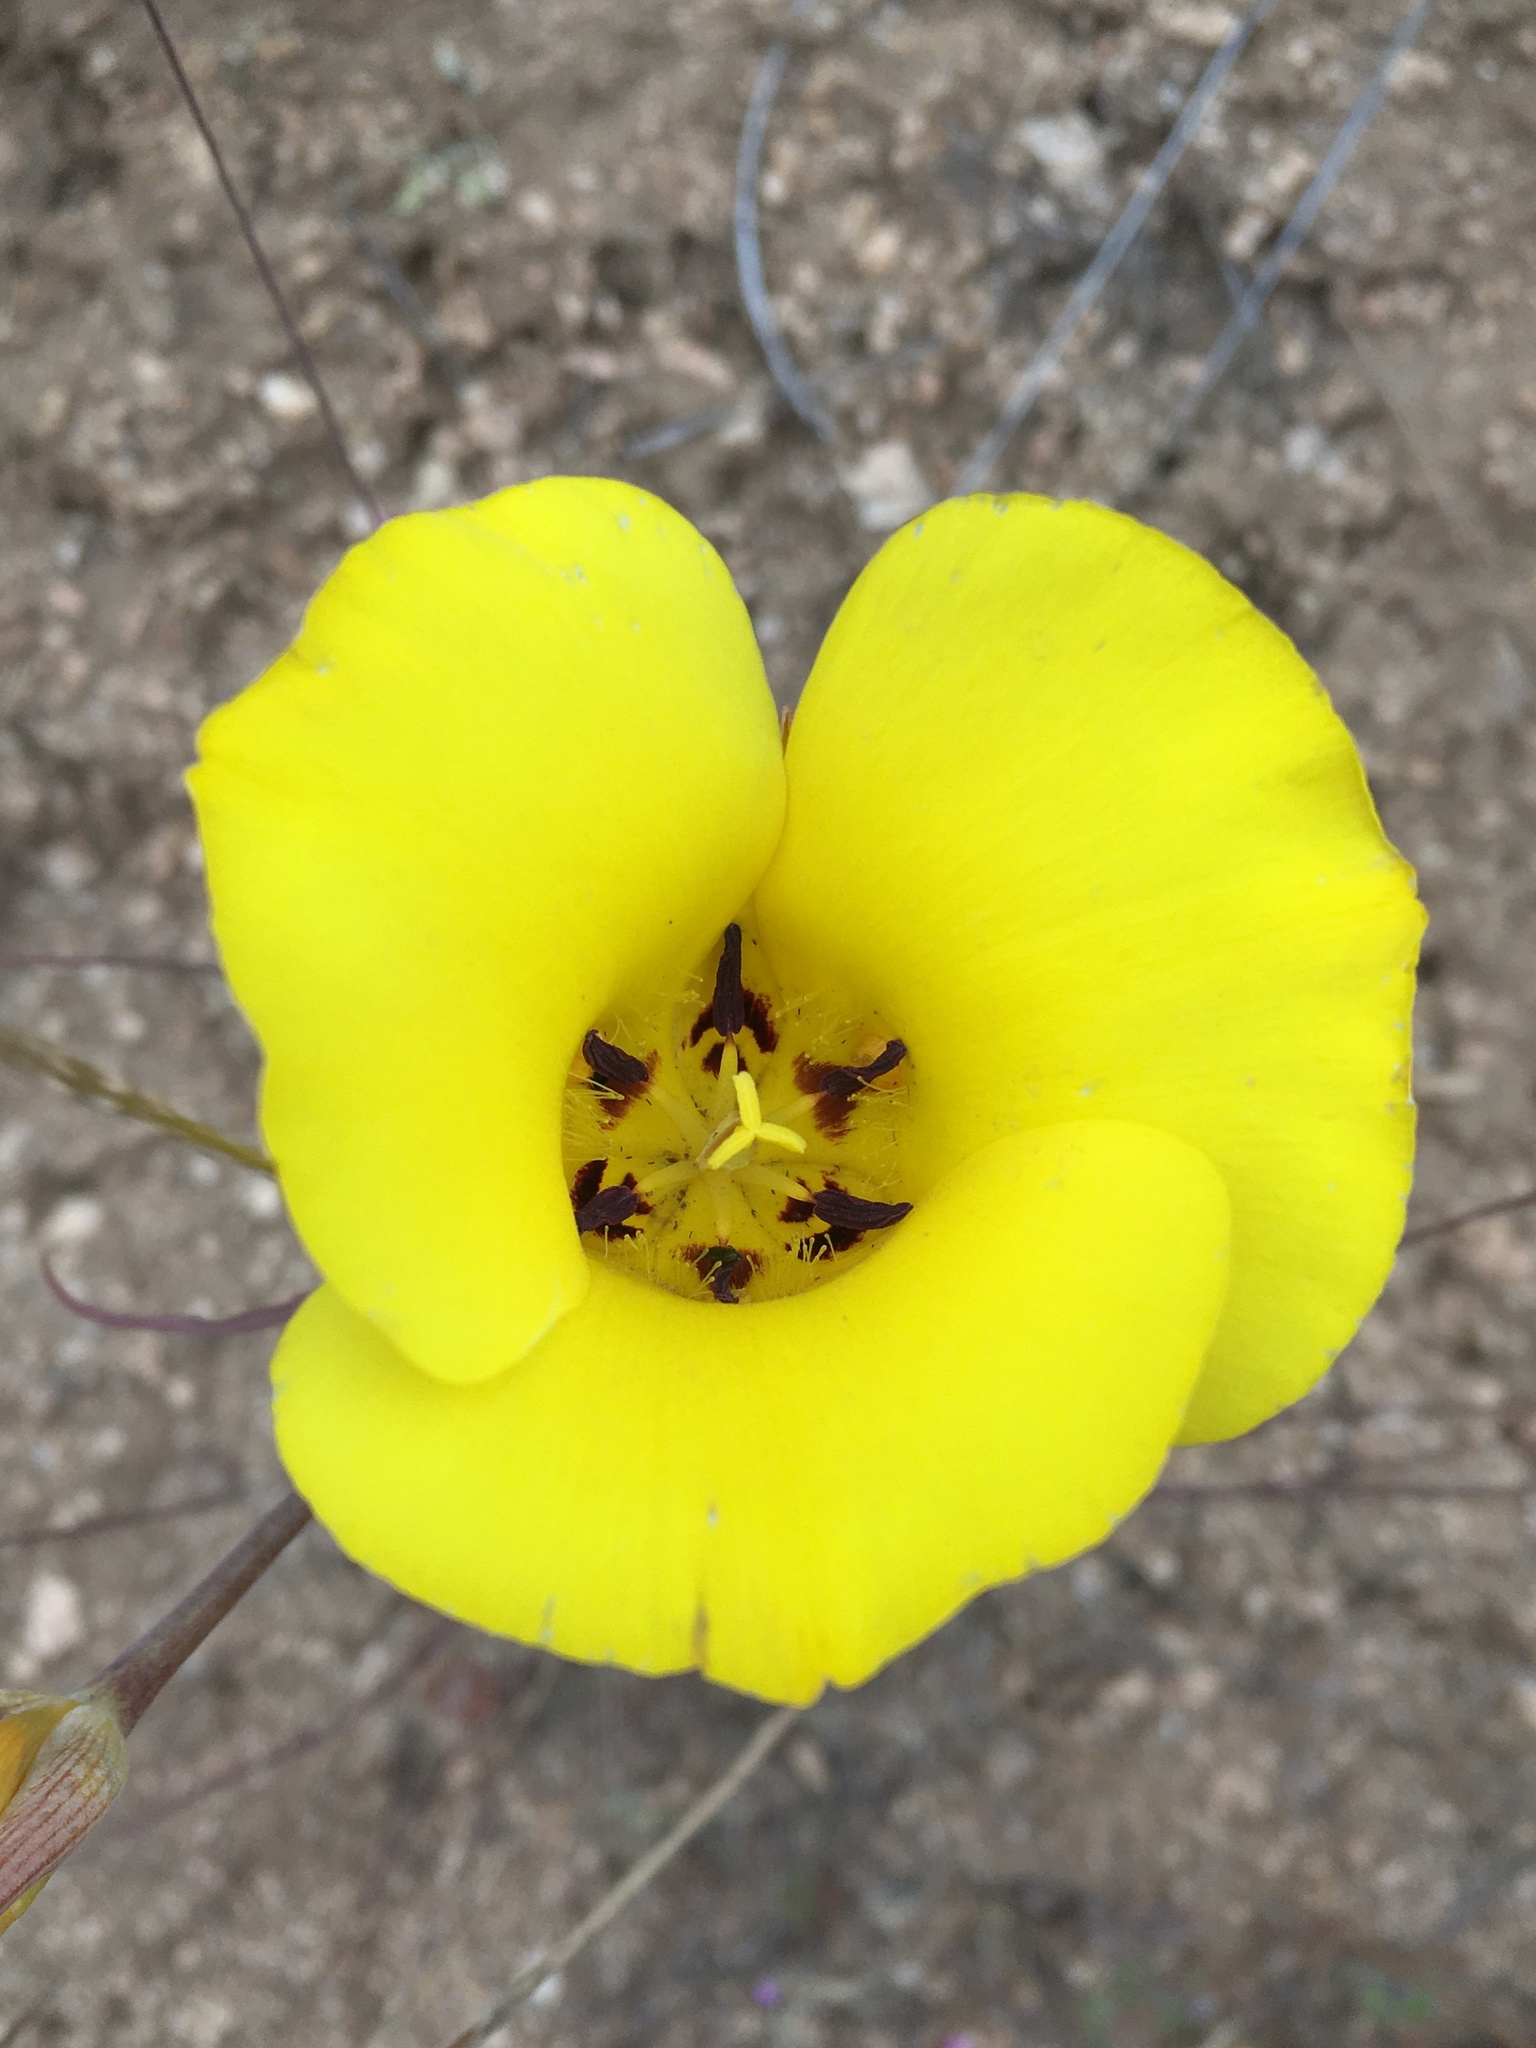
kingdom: Plantae
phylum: Tracheophyta
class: Liliopsida
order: Liliales
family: Liliaceae
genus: Calochortus
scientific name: Calochortus clavatus
